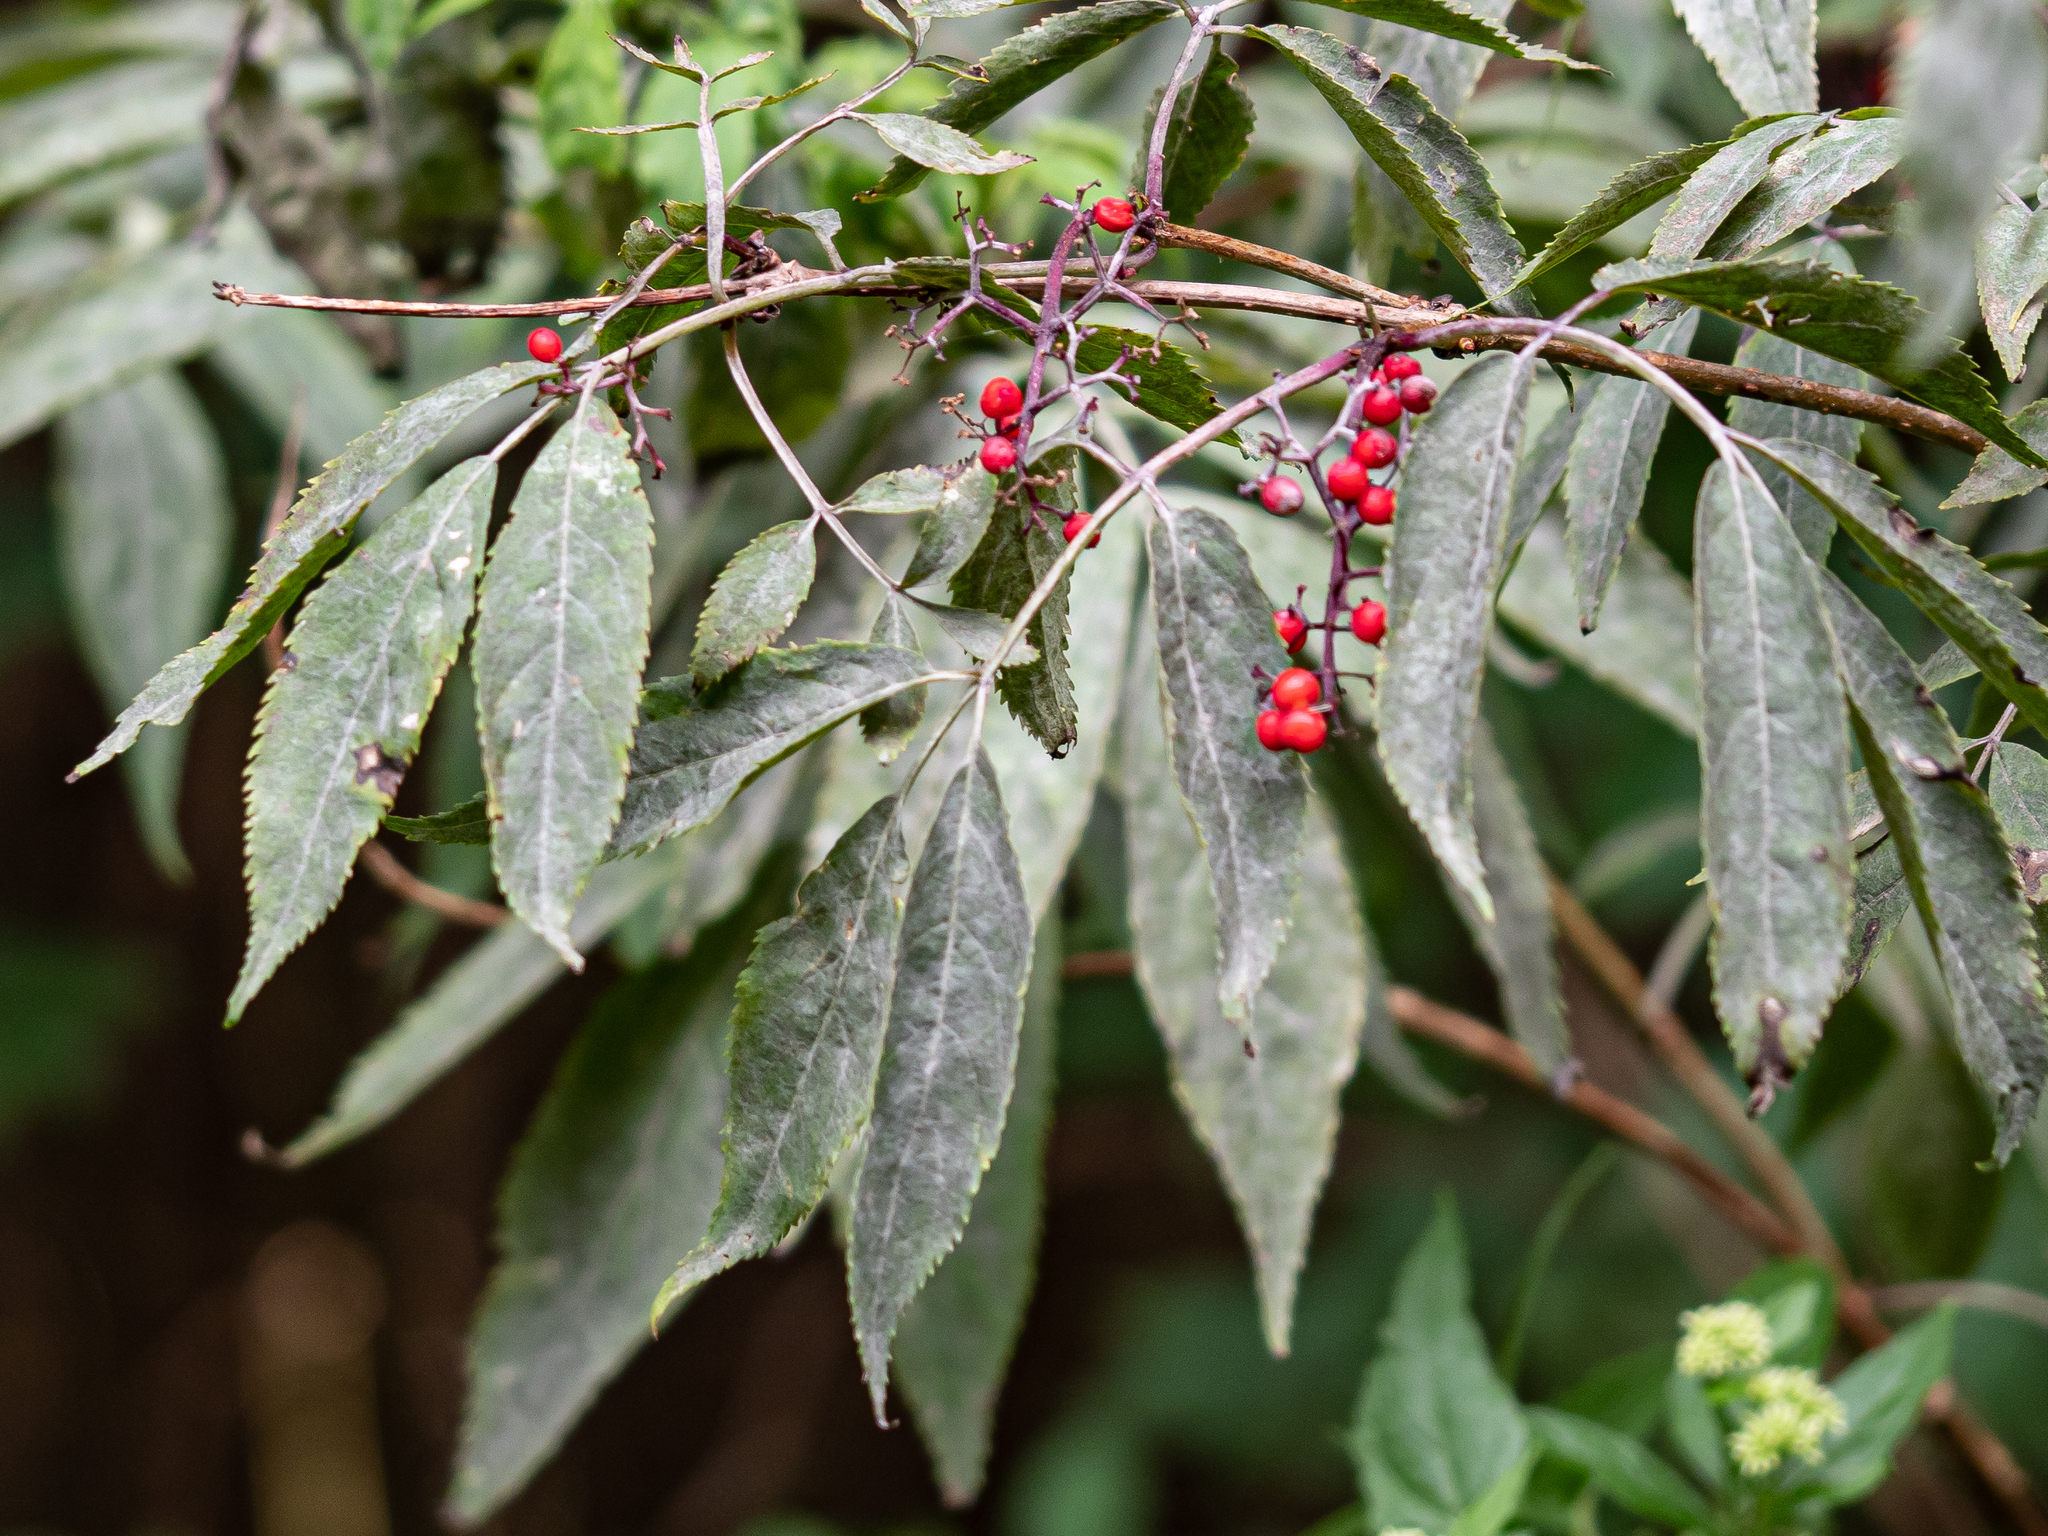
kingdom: Fungi
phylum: Ascomycota
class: Leotiomycetes
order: Helotiales
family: Erysiphaceae
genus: Erysiphe
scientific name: Erysiphe sambuci
